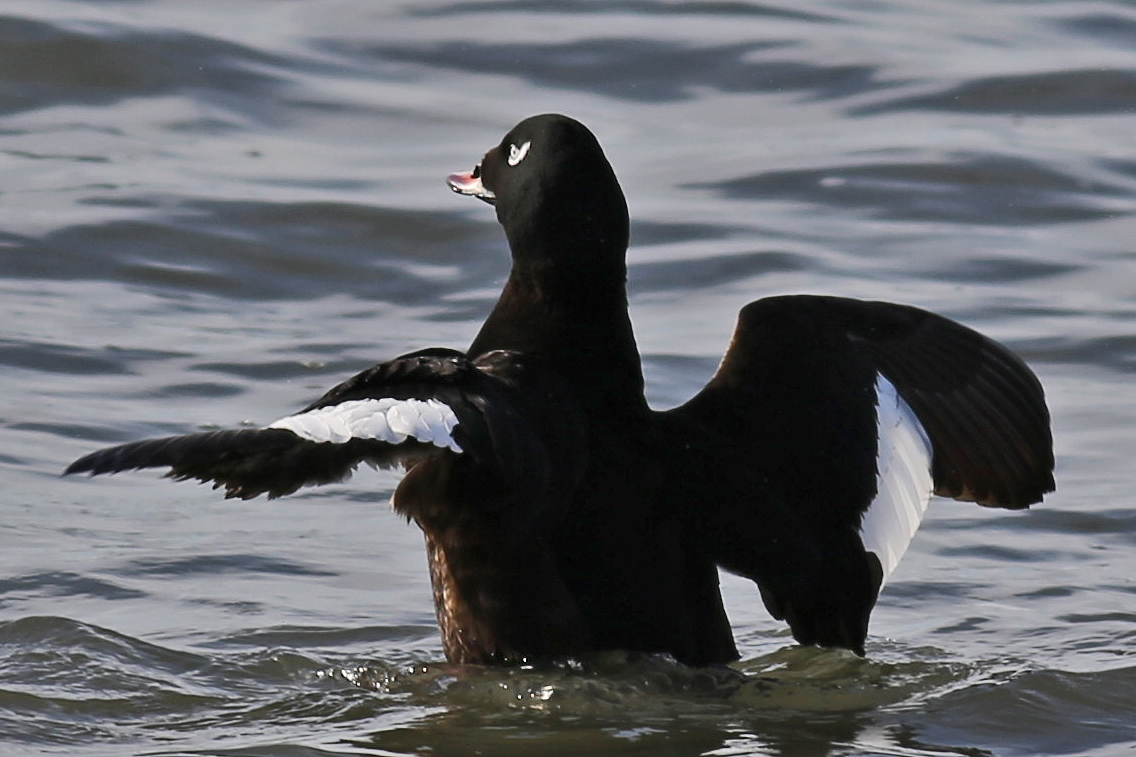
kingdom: Animalia
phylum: Chordata
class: Aves
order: Anseriformes
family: Anatidae
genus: Melanitta
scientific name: Melanitta deglandi
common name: White-winged scoter
